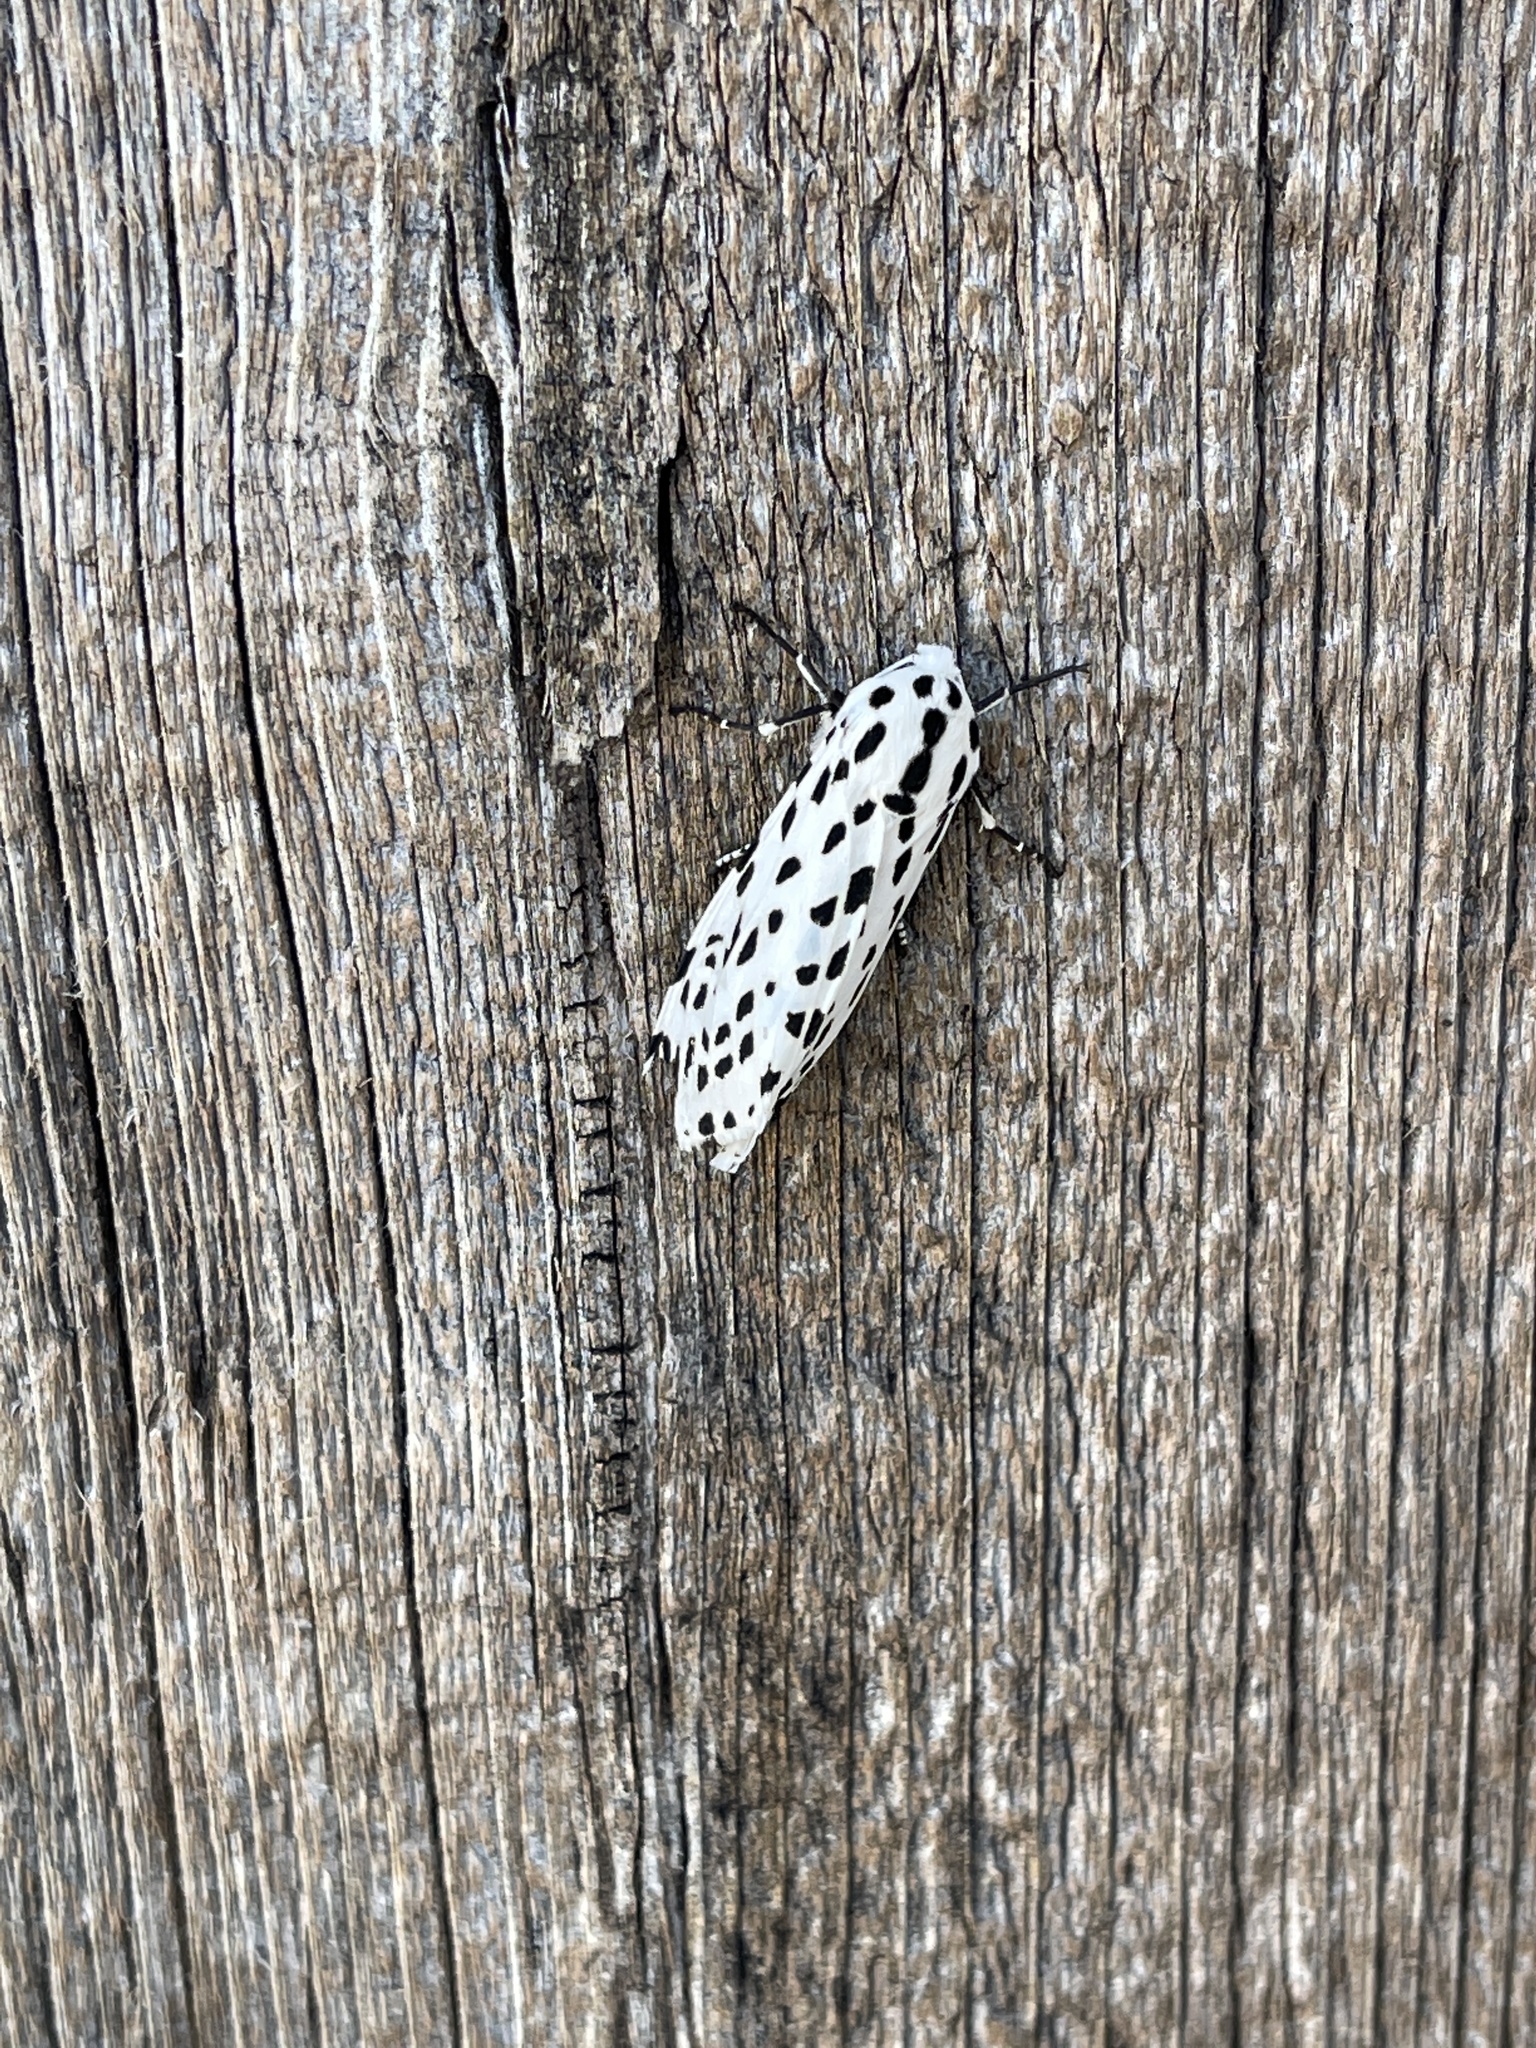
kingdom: Animalia
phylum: Arthropoda
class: Insecta
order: Lepidoptera
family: Erebidae
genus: Hypercompe
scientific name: Hypercompe permaculata
